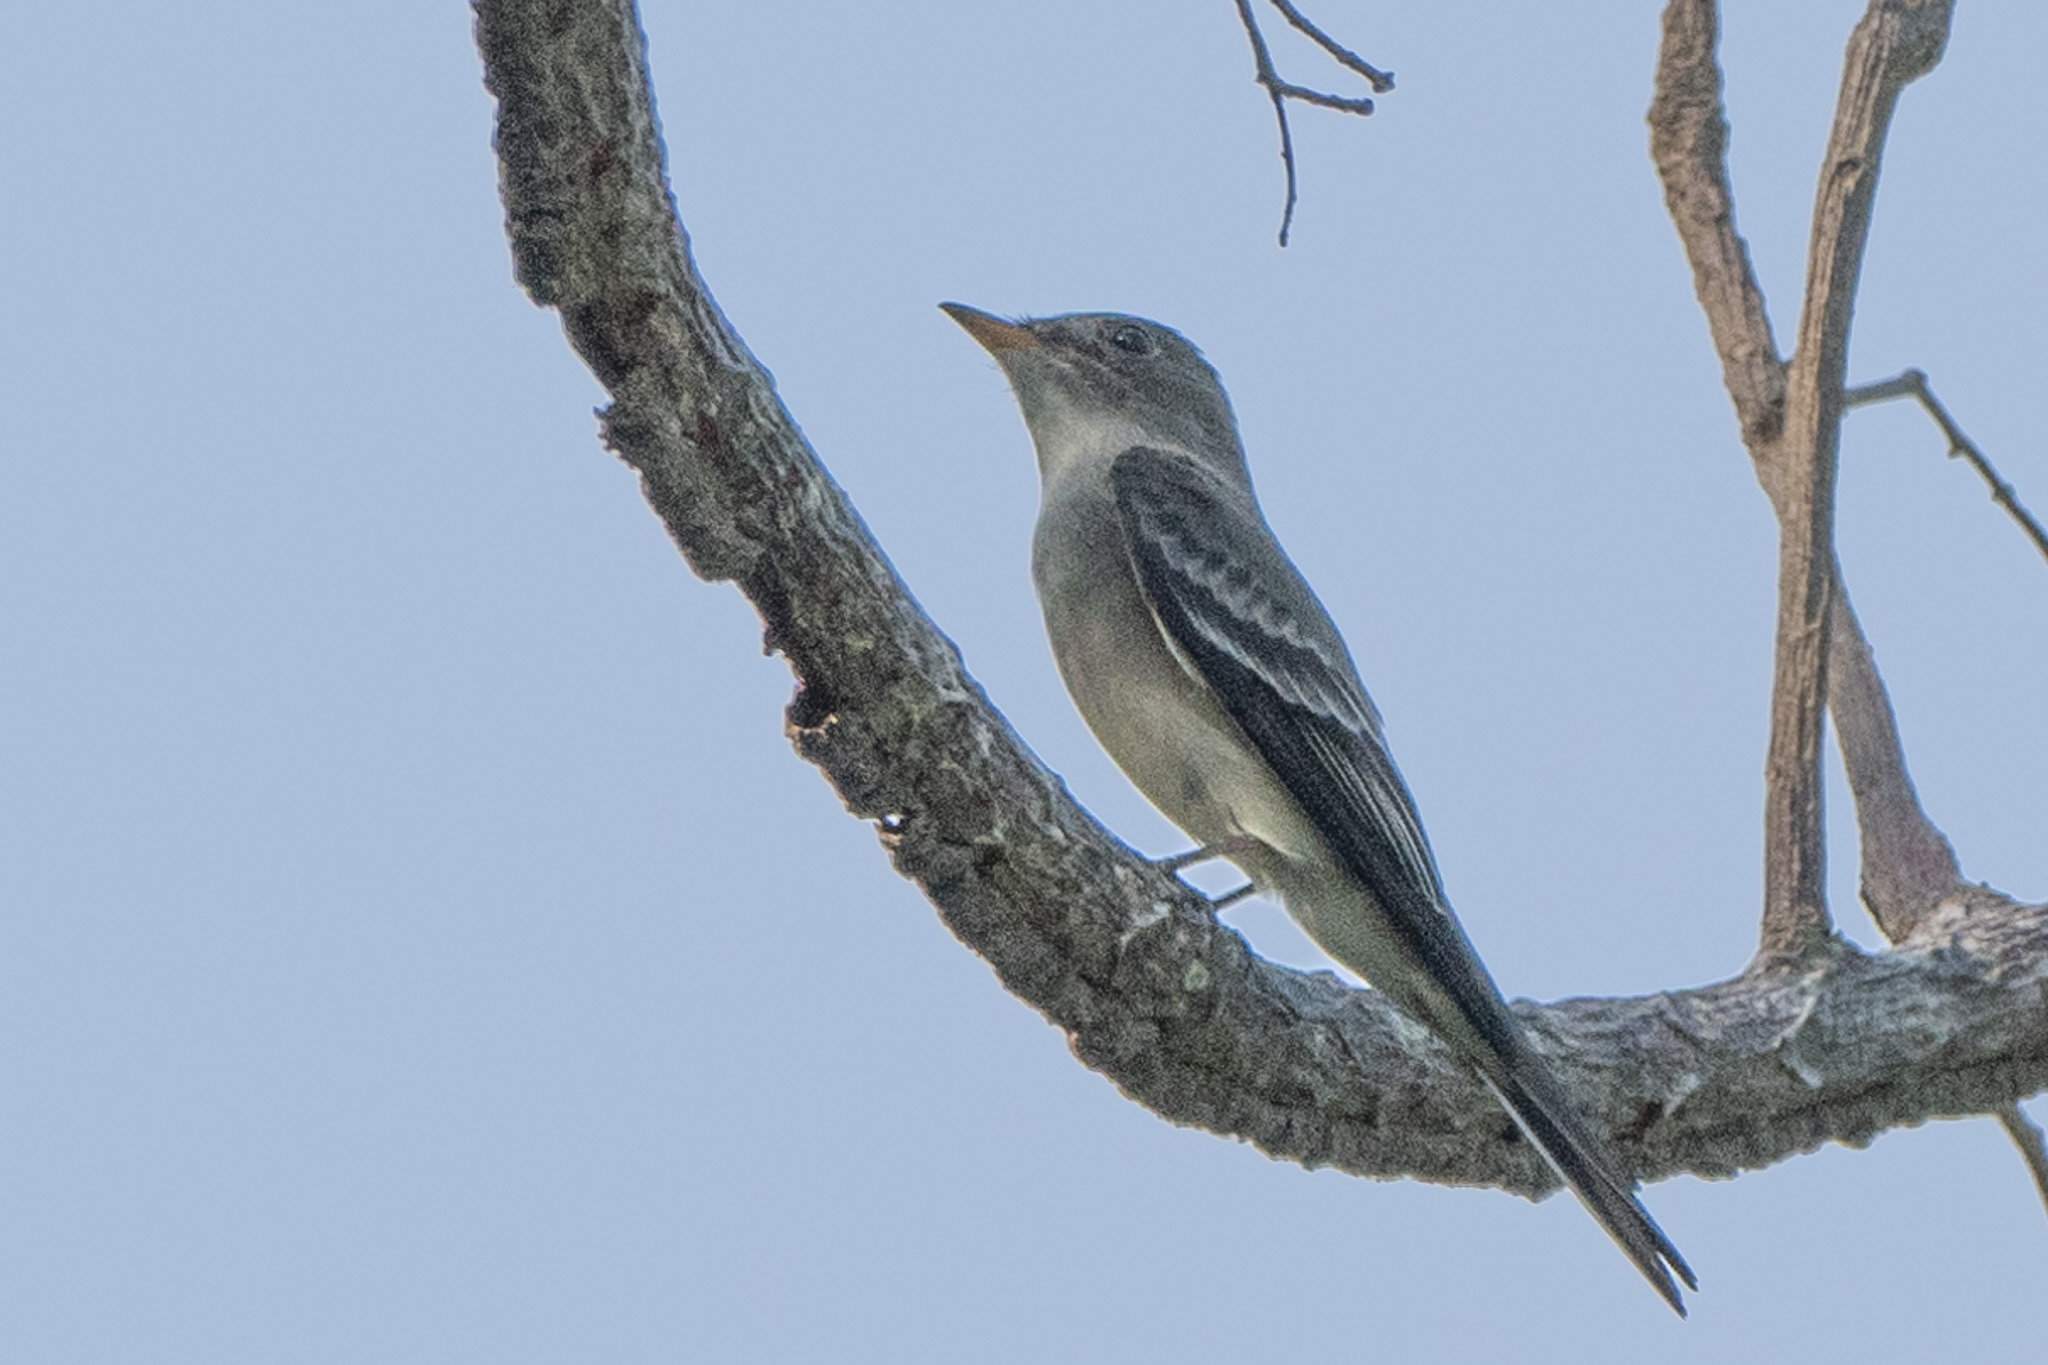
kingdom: Animalia
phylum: Chordata
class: Aves
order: Passeriformes
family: Tyrannidae
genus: Contopus
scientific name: Contopus virens
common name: Eastern wood-pewee
